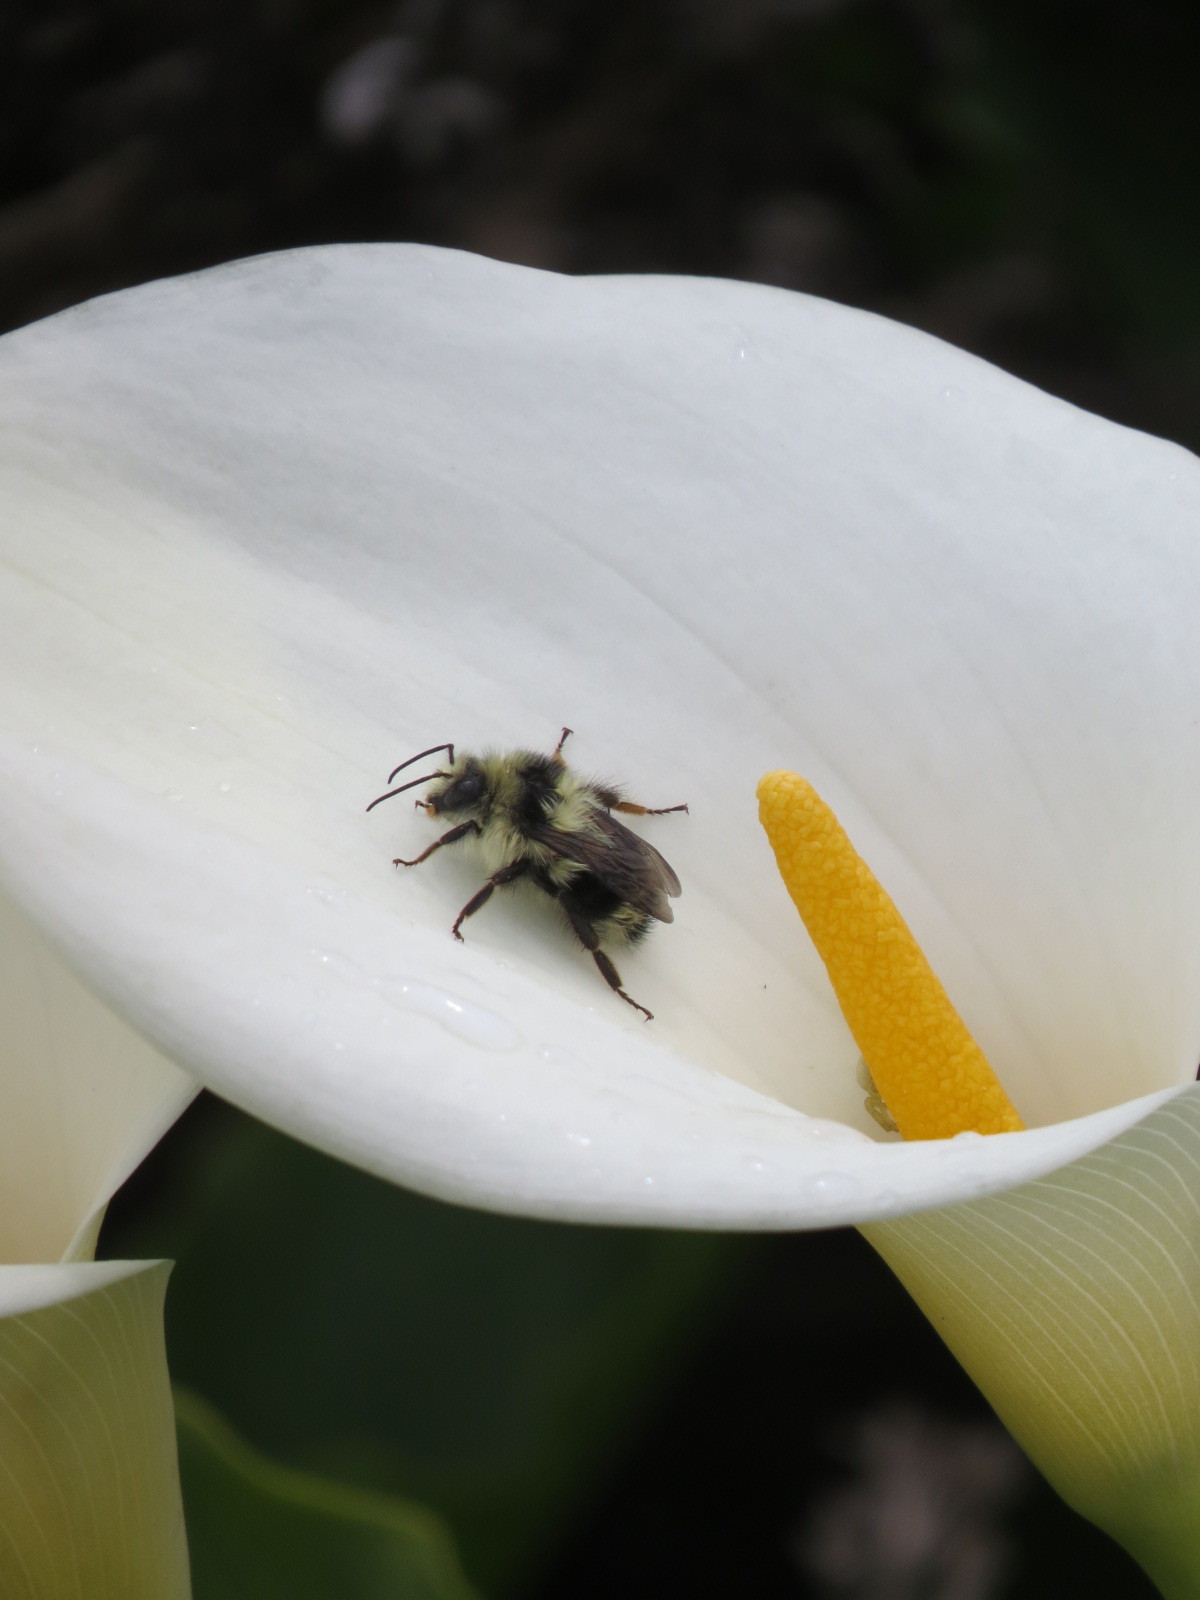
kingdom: Plantae
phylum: Tracheophyta
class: Liliopsida
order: Alismatales
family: Araceae
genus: Zantedeschia
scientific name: Zantedeschia aethiopica
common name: Altar-lily
